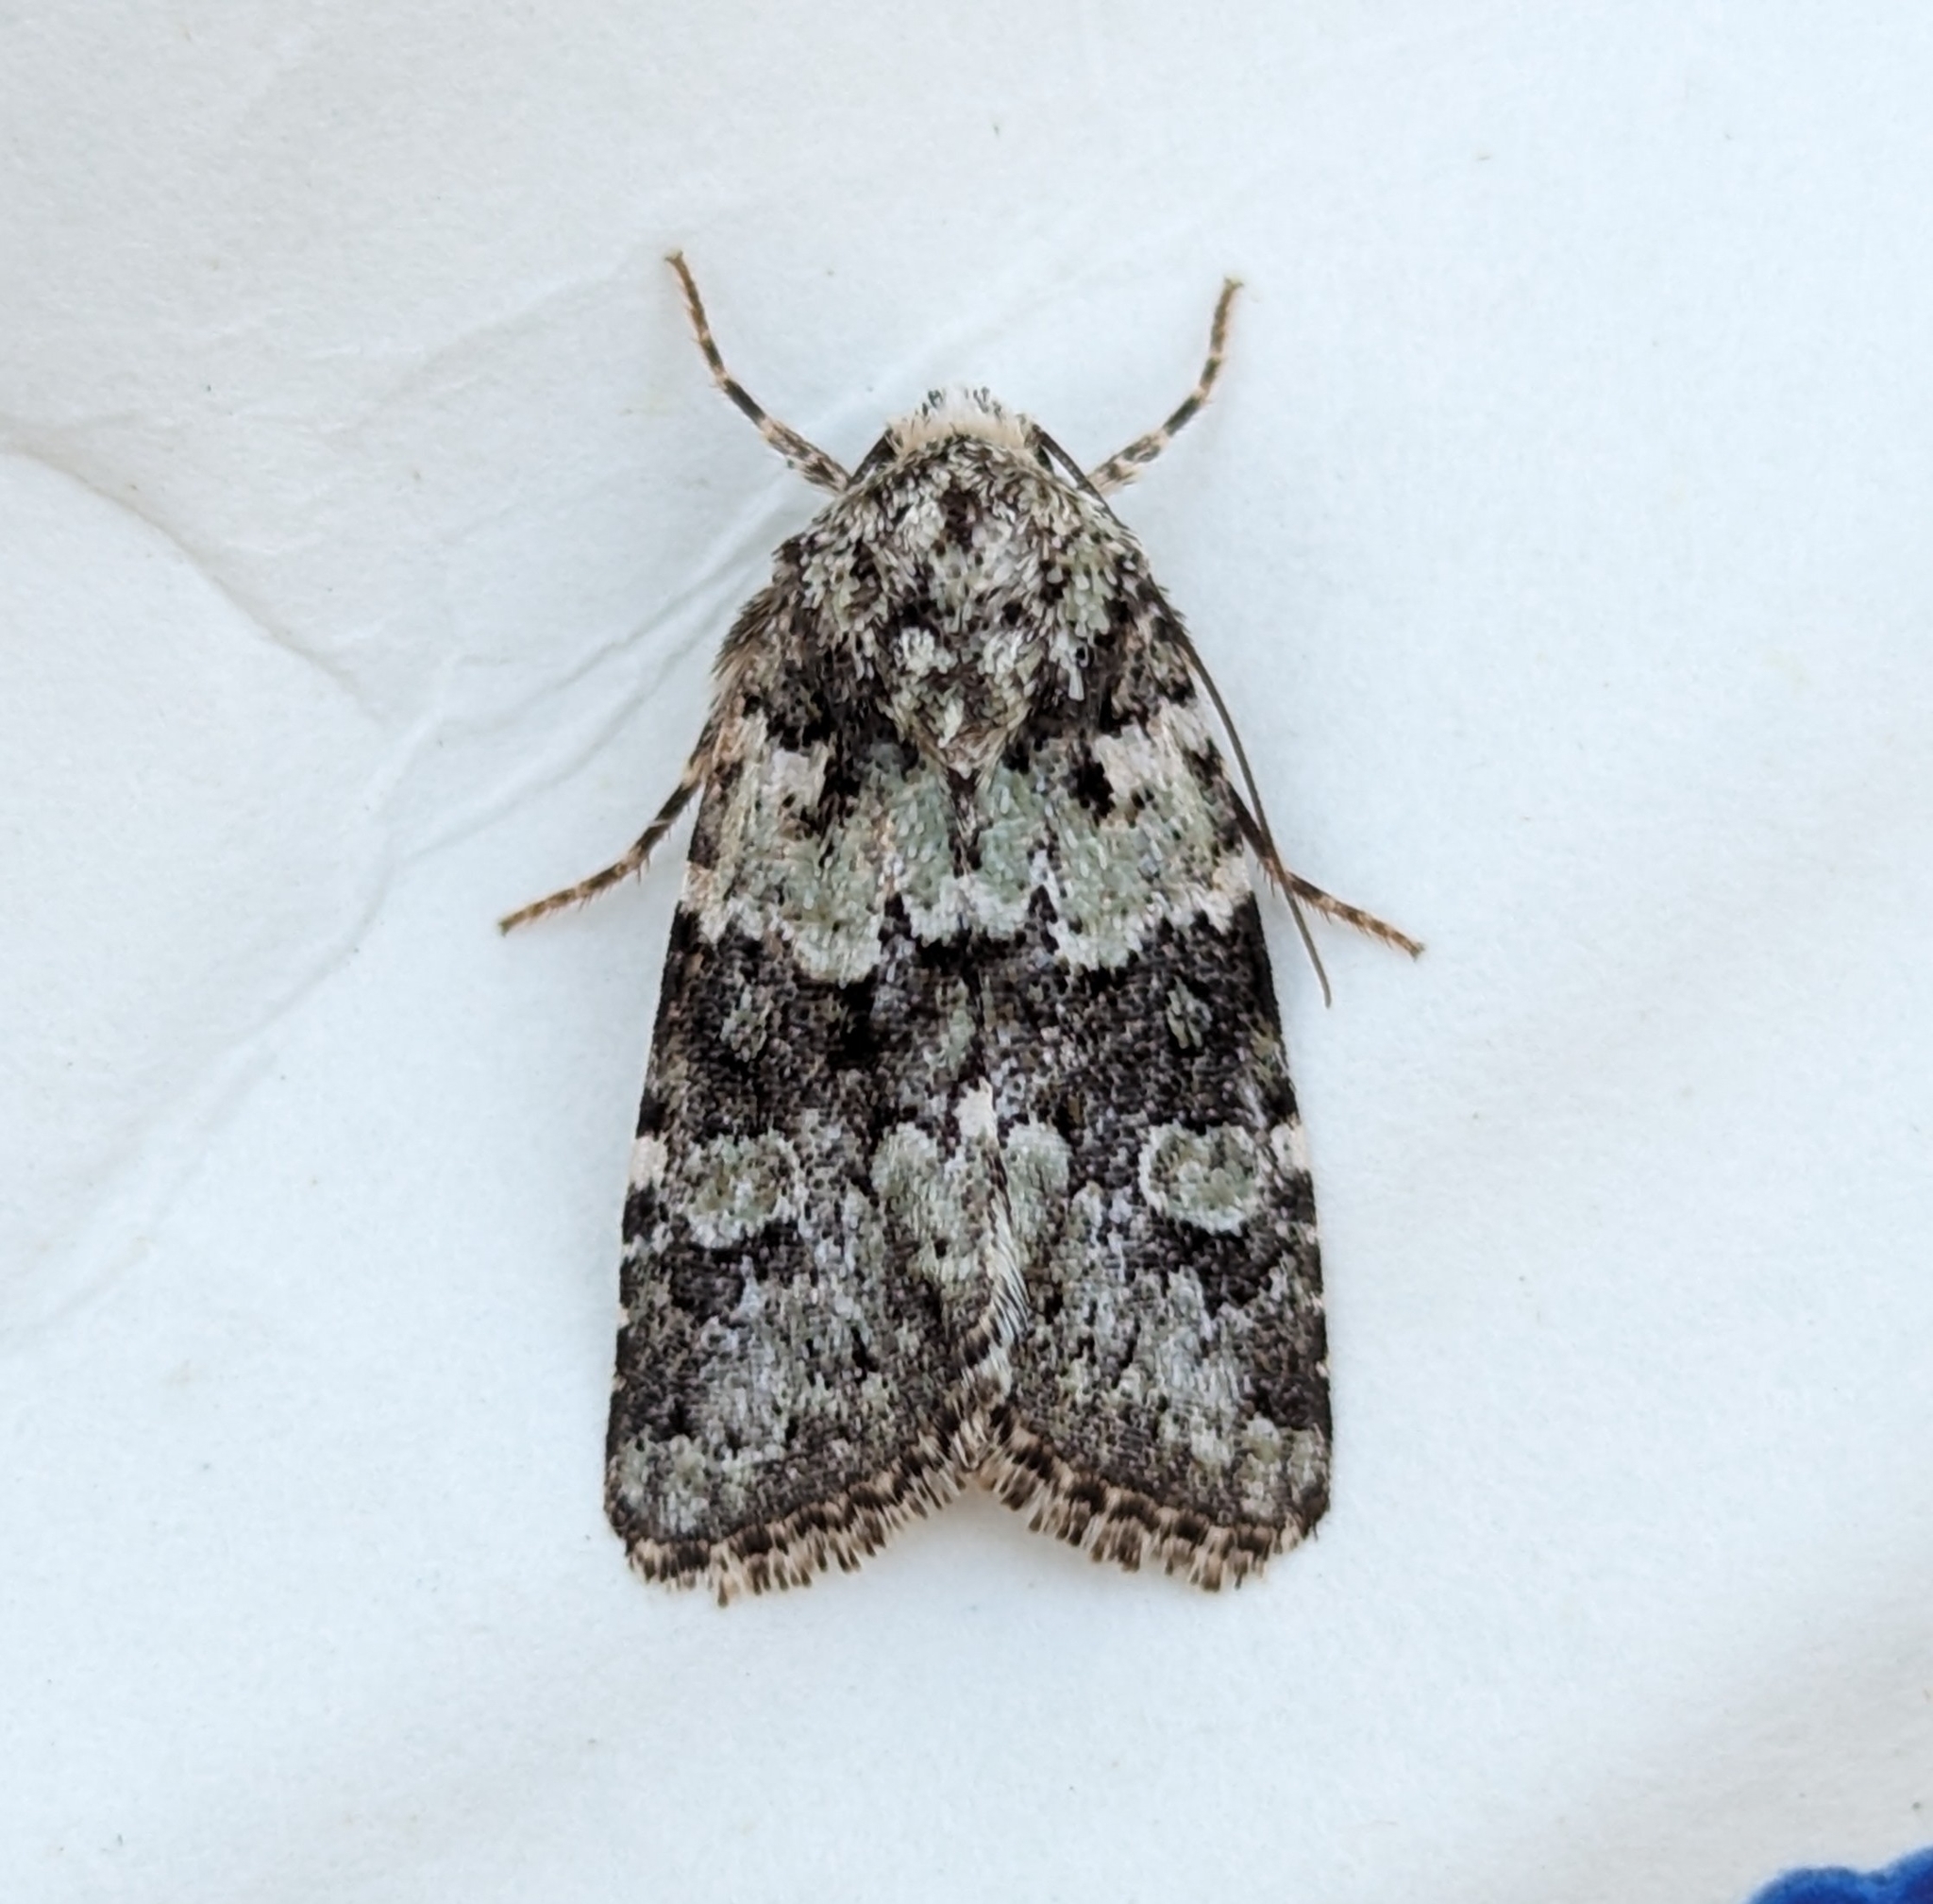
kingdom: Animalia
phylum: Arthropoda
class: Insecta
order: Lepidoptera
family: Noctuidae
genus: Lacinipolia
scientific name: Lacinipolia strigicollis
